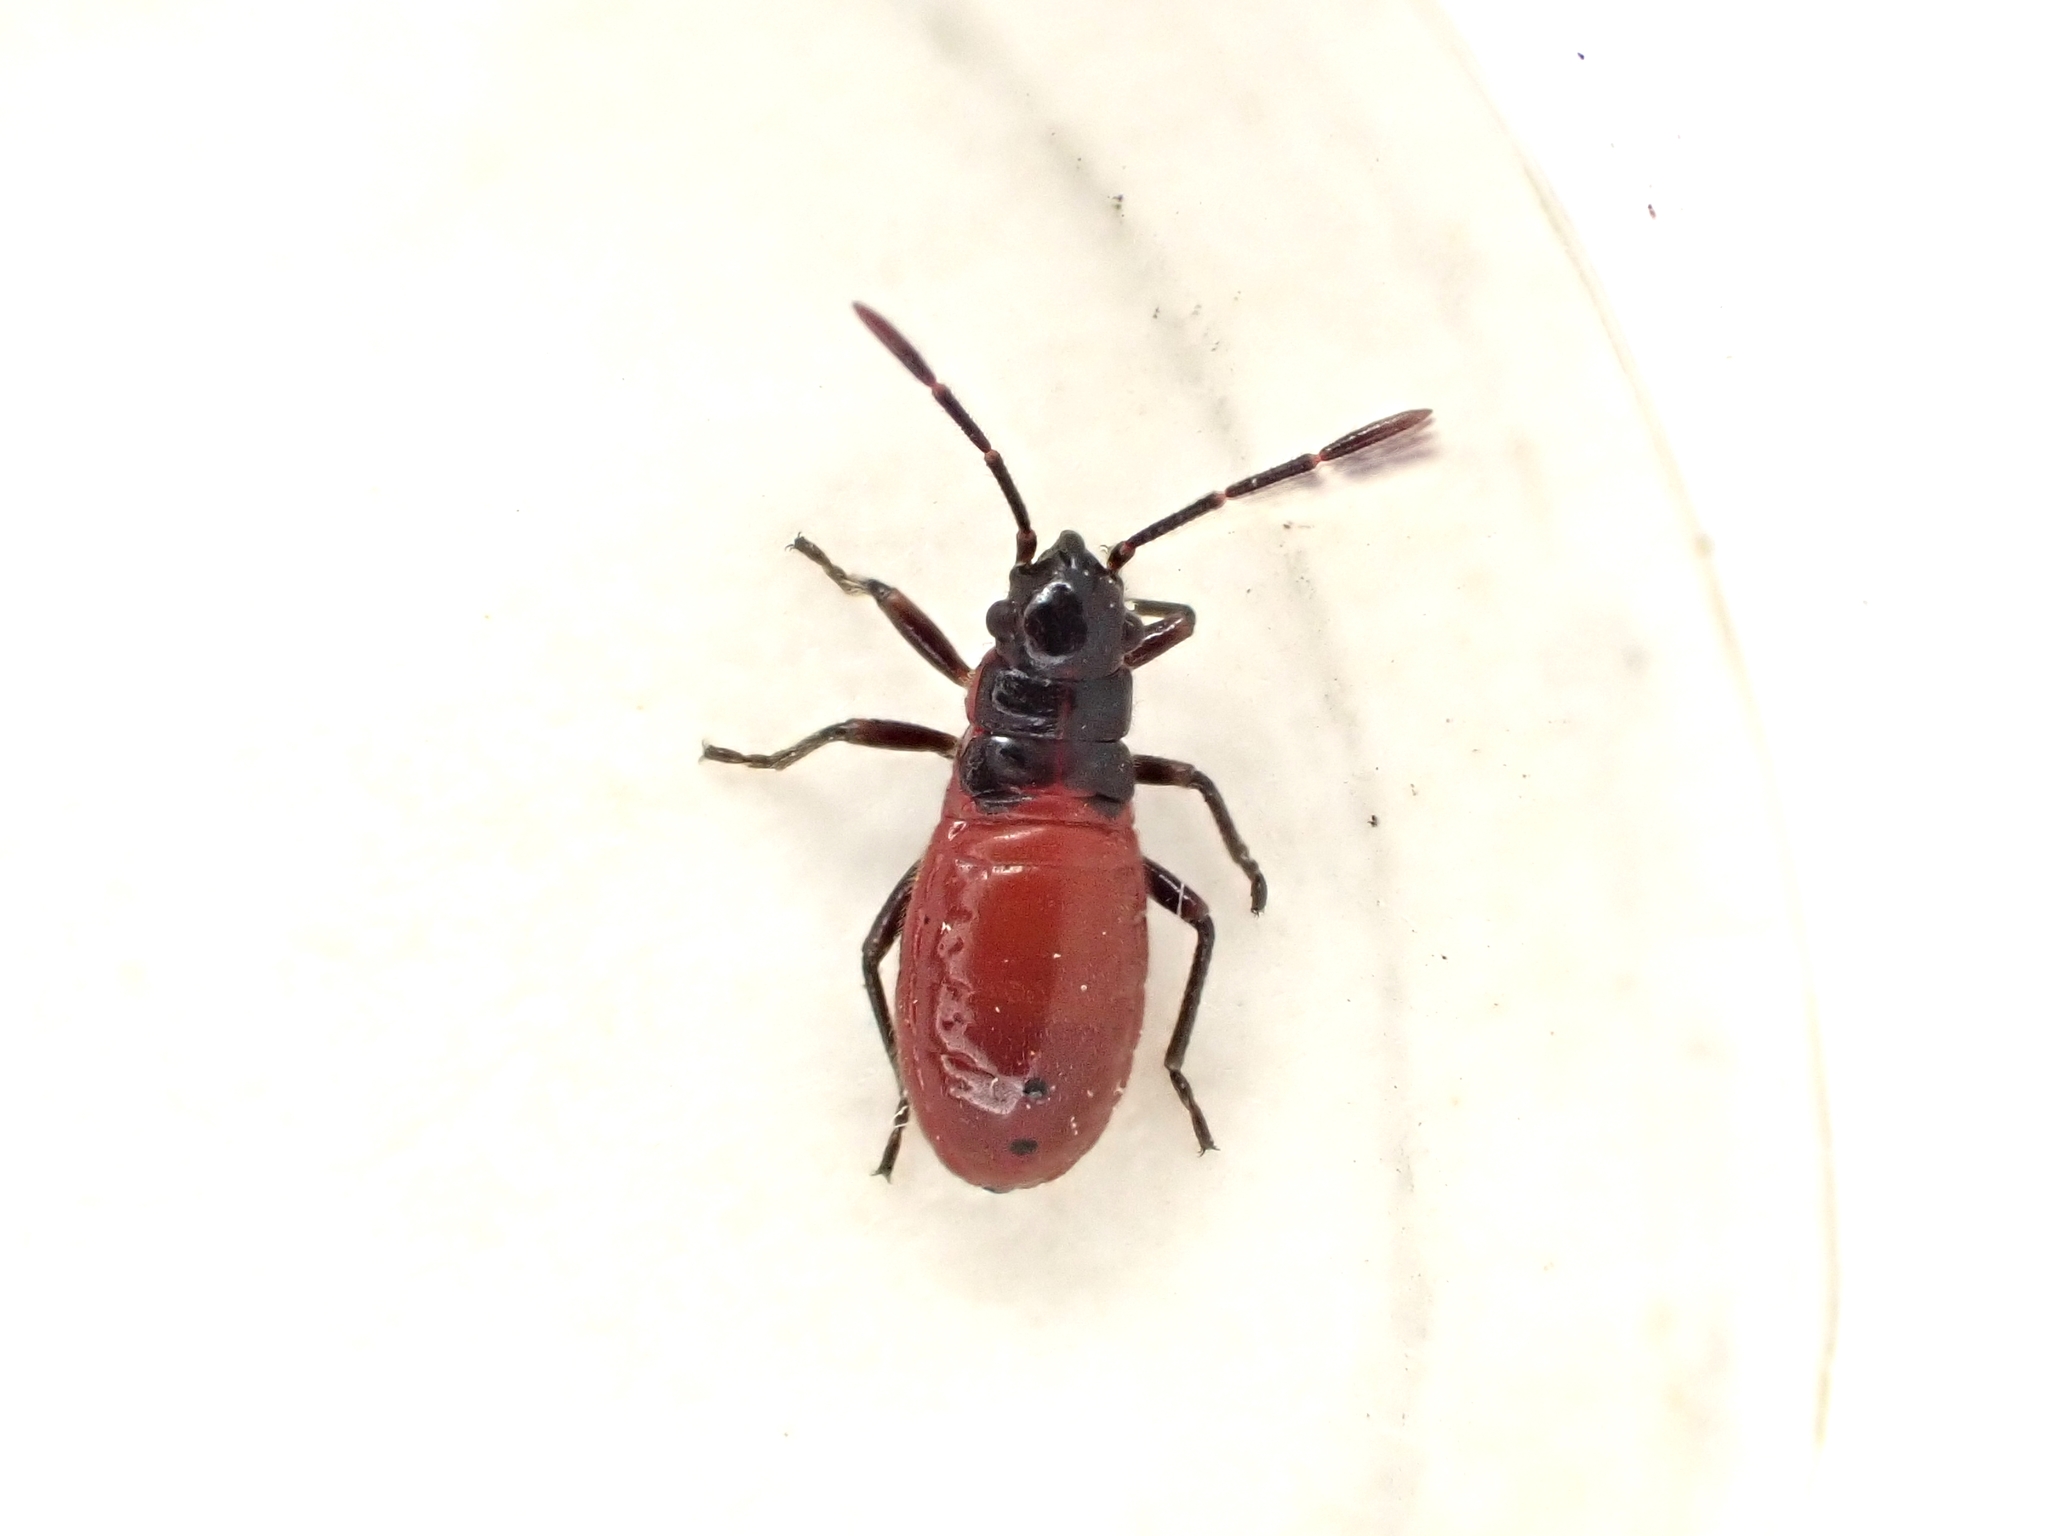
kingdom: Animalia
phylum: Arthropoda
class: Insecta
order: Hemiptera
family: Lygaeidae
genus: Arocatus
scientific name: Arocatus rusticus
